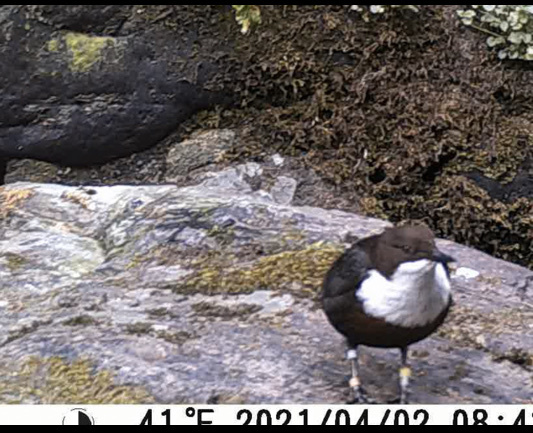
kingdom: Animalia
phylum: Chordata
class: Aves
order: Passeriformes
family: Cinclidae
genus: Cinclus
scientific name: Cinclus cinclus
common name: White-throated dipper
